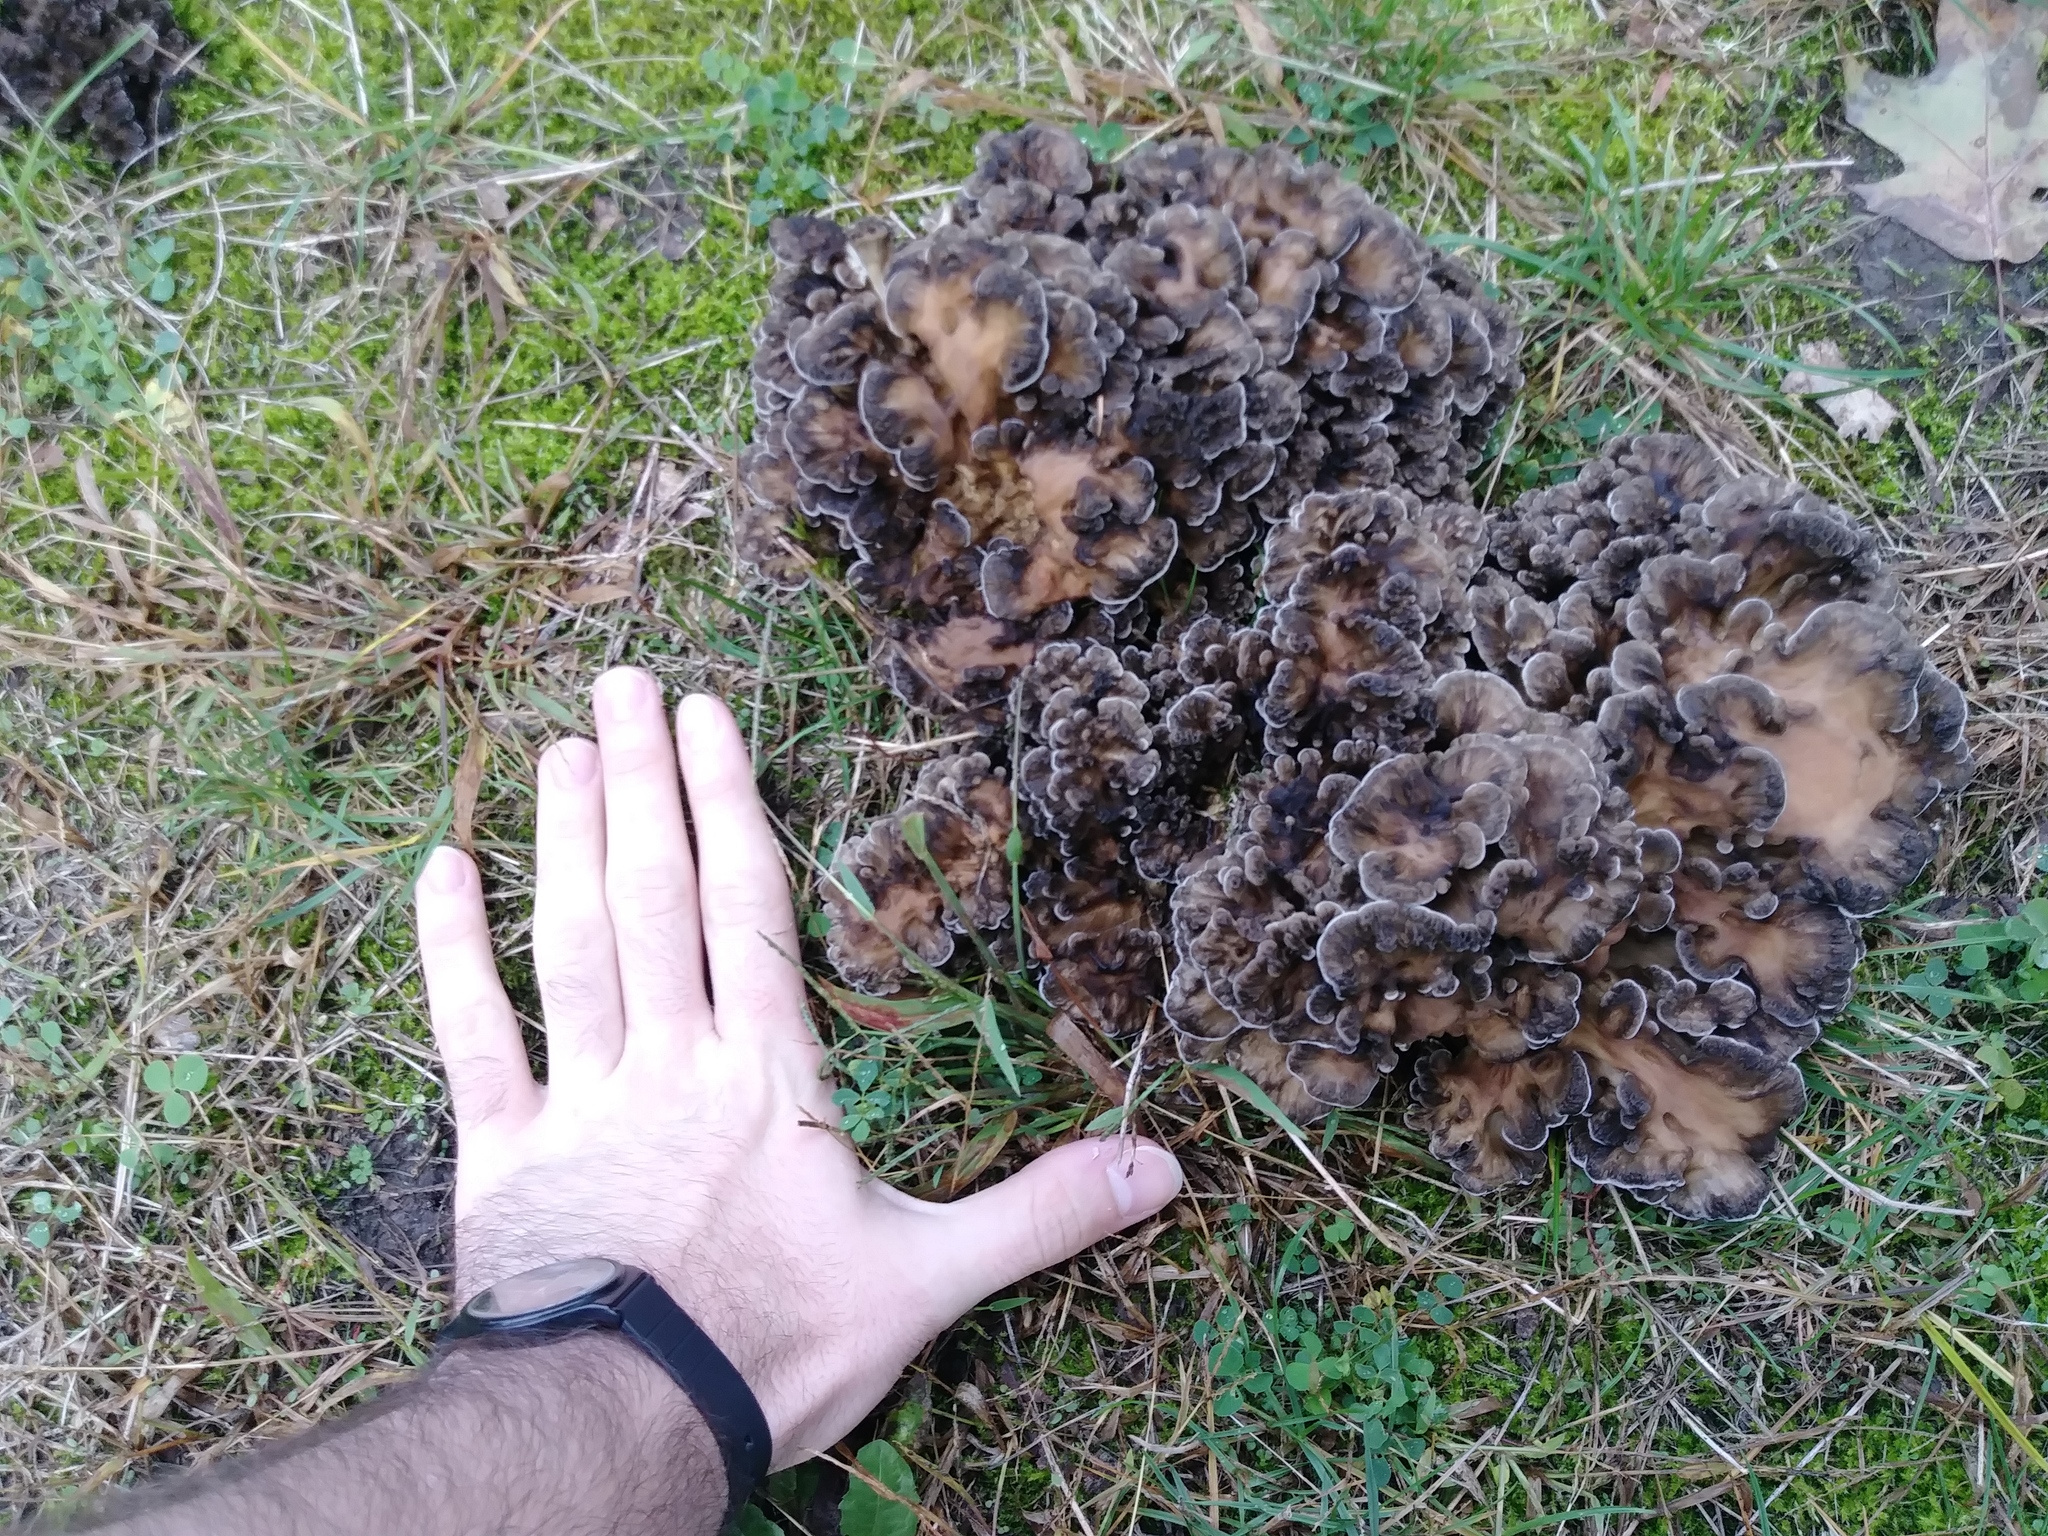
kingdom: Fungi
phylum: Basidiomycota
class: Agaricomycetes
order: Polyporales
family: Grifolaceae
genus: Grifola
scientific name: Grifola frondosa
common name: Hen of the woods
